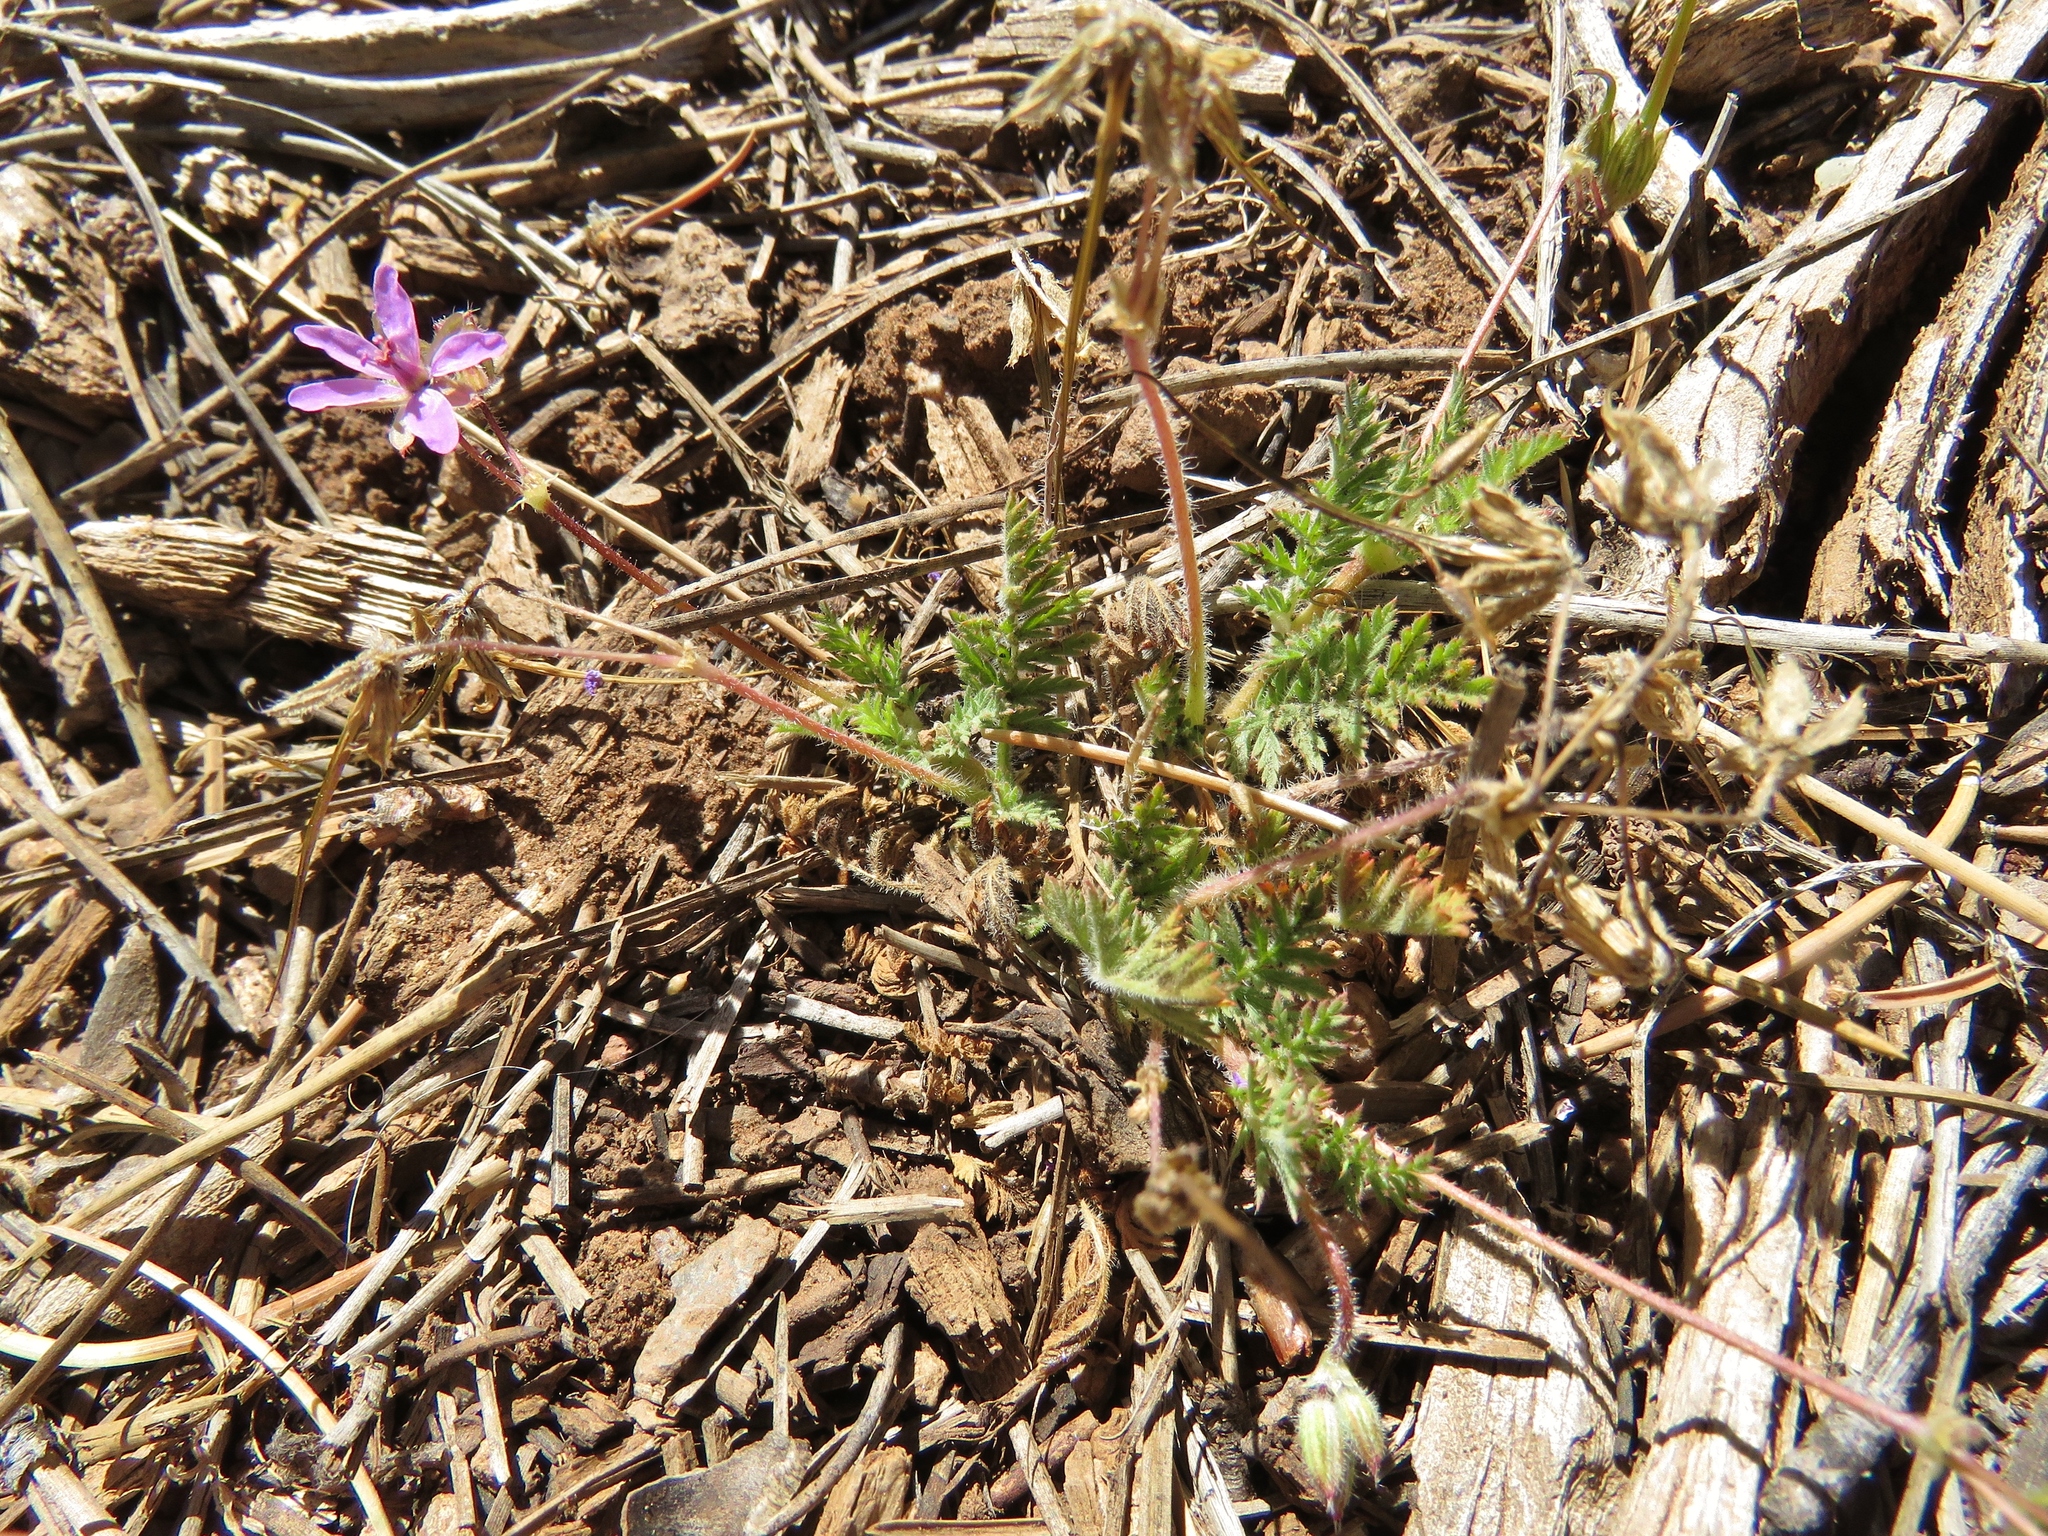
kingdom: Plantae
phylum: Tracheophyta
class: Magnoliopsida
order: Geraniales
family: Geraniaceae
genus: Erodium
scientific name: Erodium cicutarium
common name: Common stork's-bill
